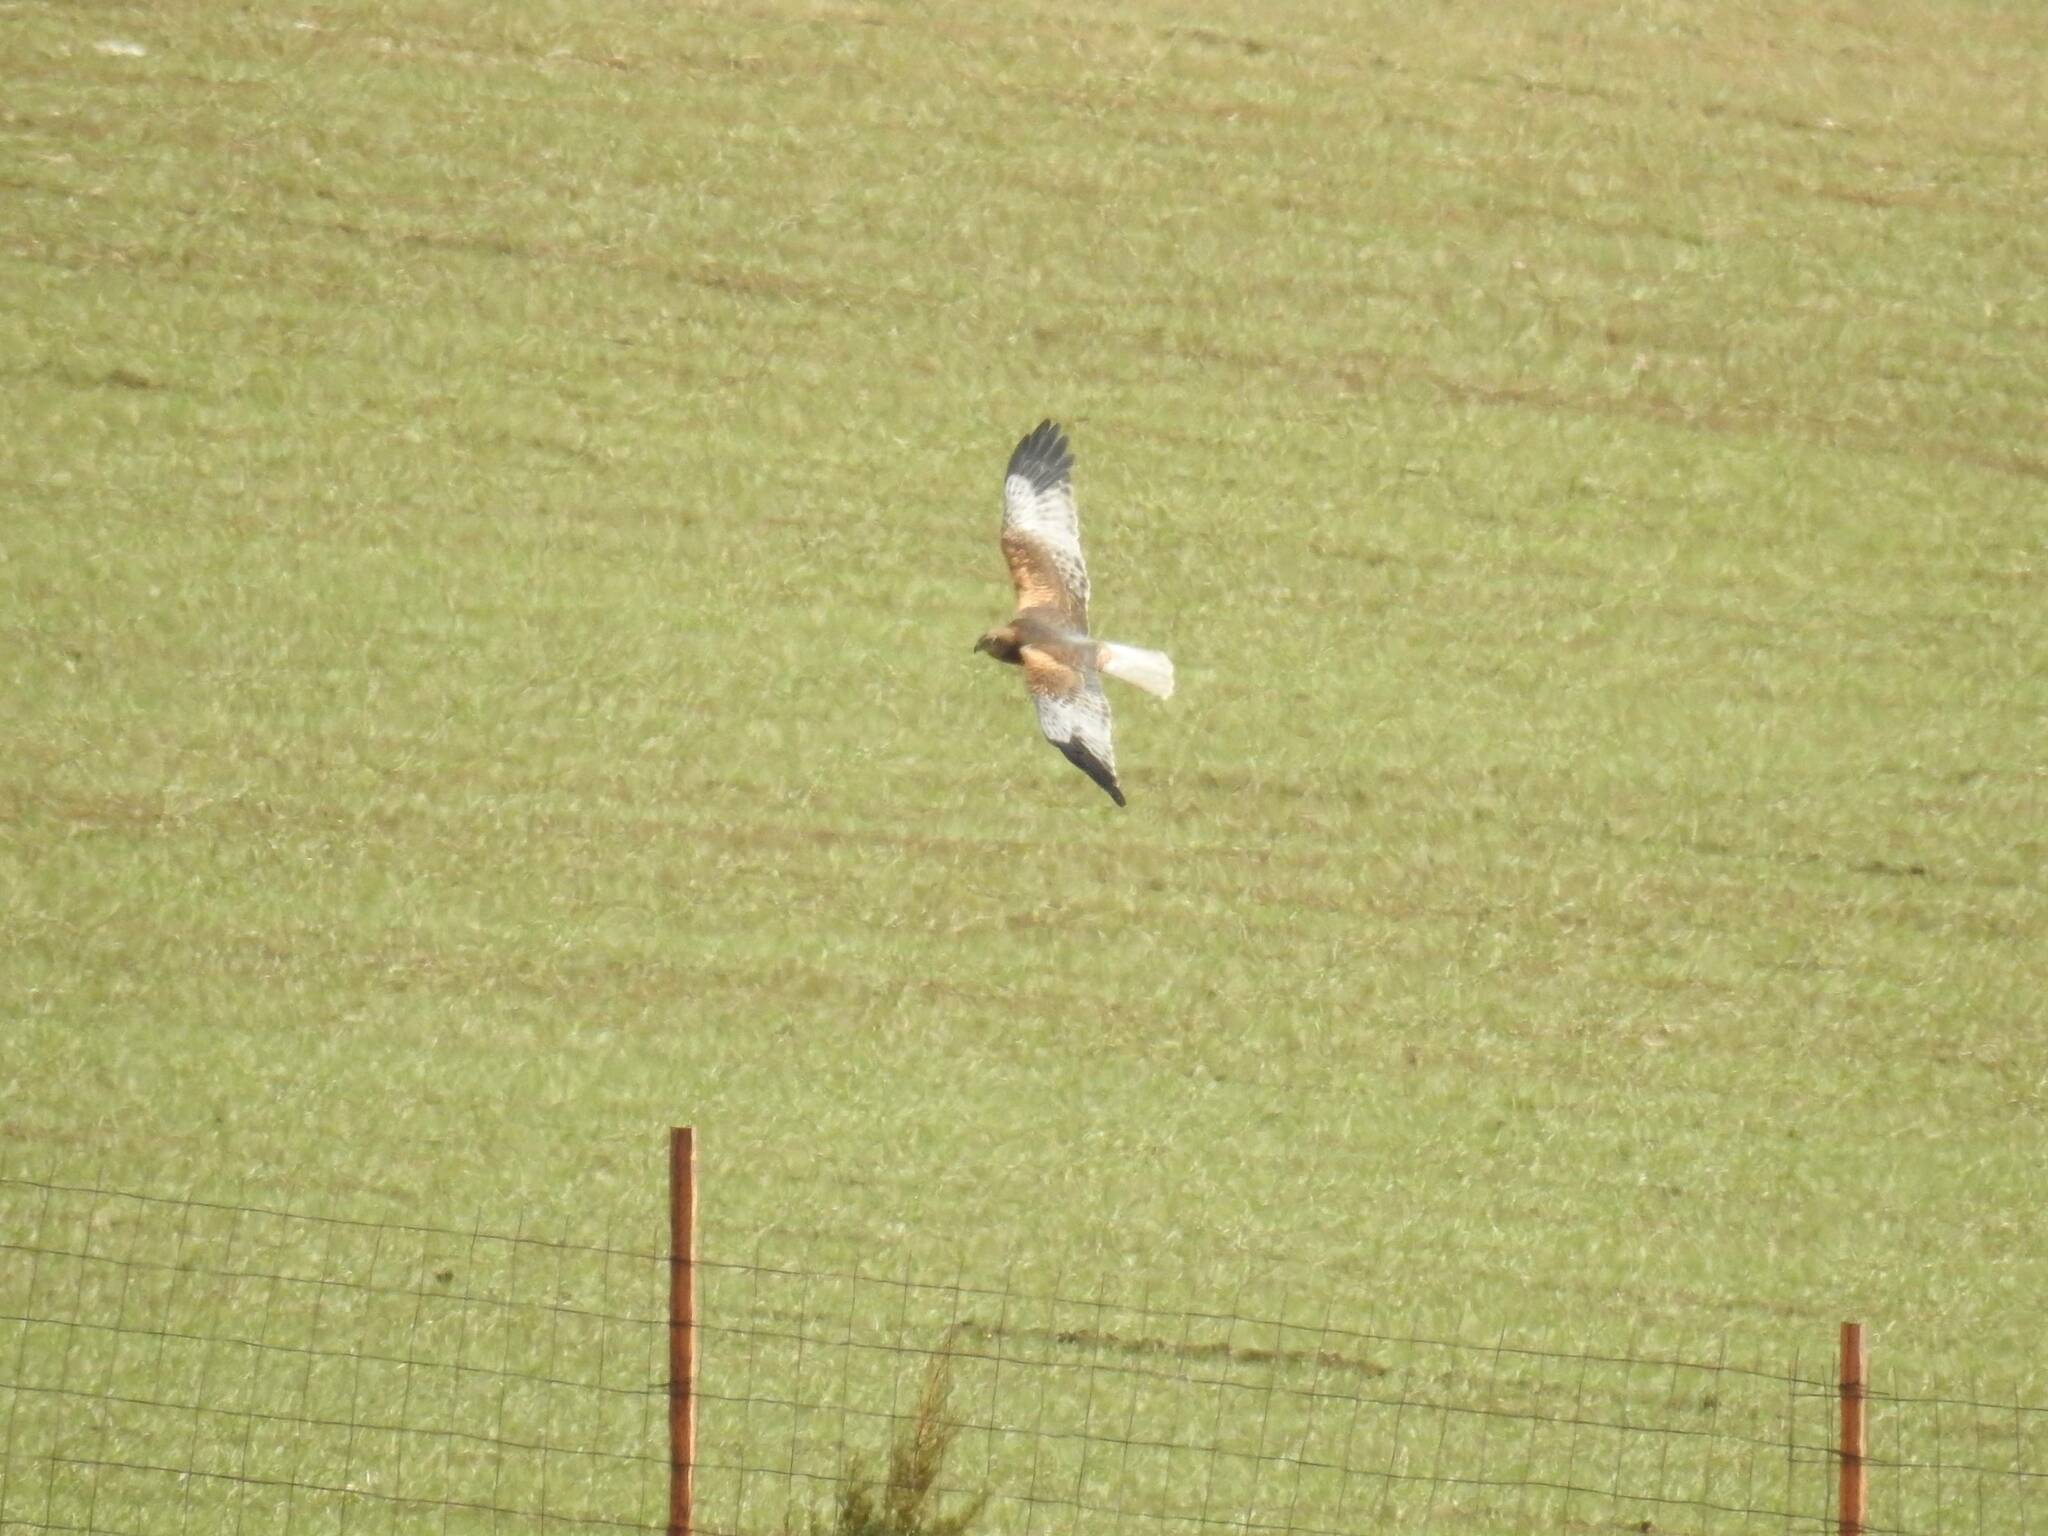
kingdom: Animalia
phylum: Chordata
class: Aves
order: Accipitriformes
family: Accipitridae
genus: Circus
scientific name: Circus aeruginosus
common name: Western marsh harrier
